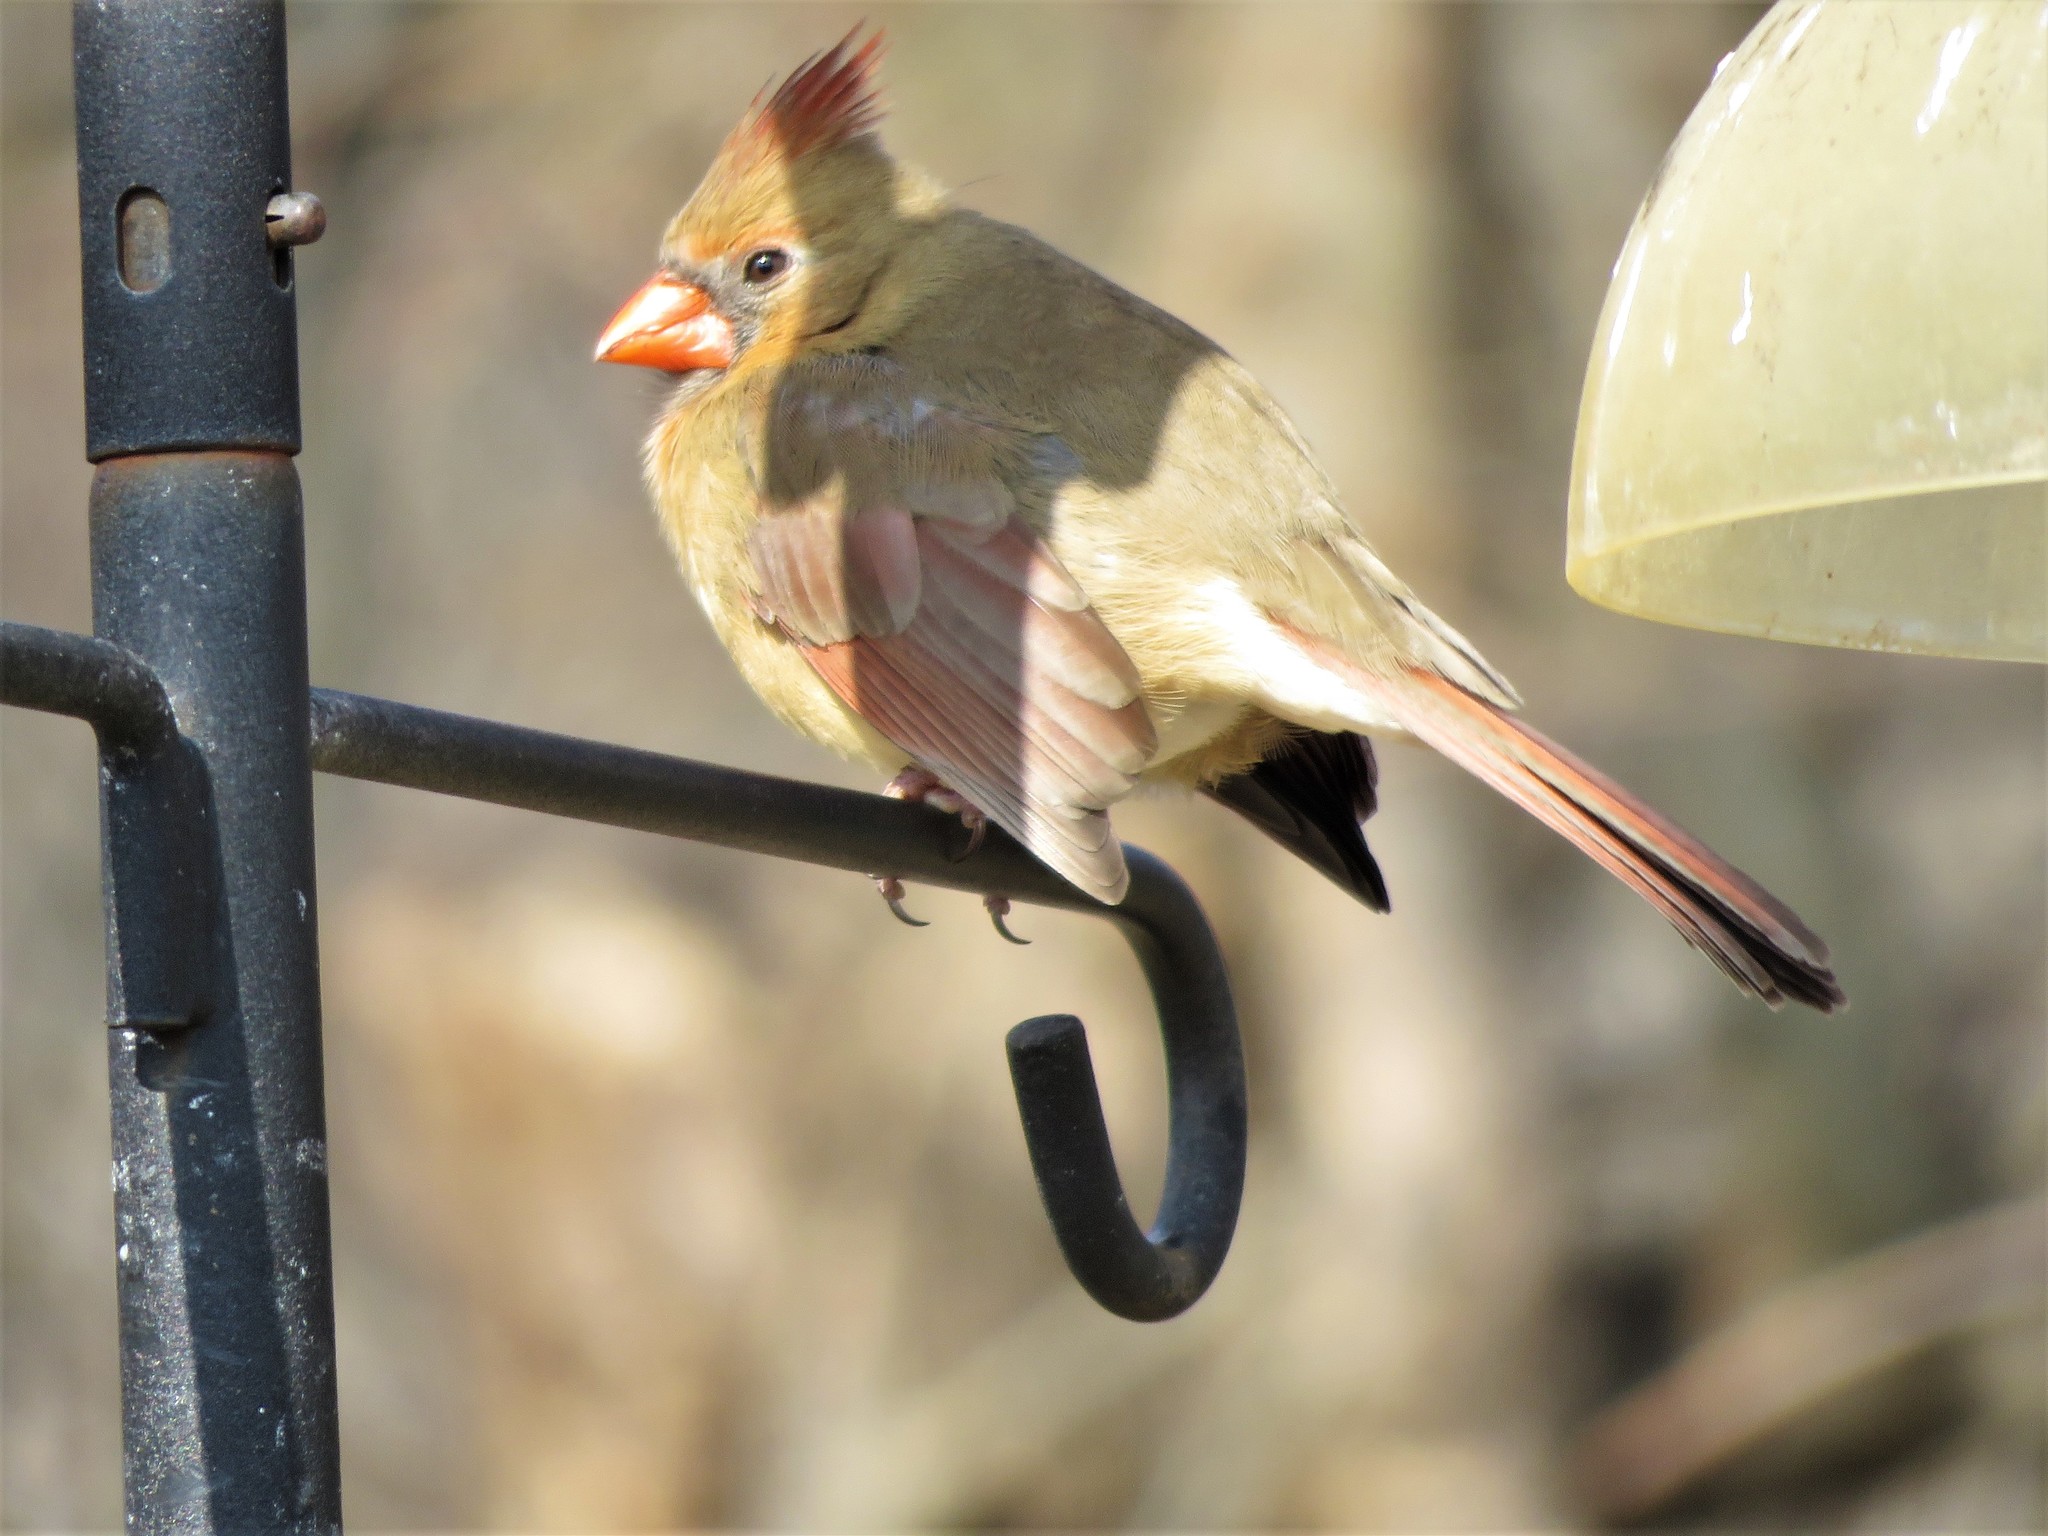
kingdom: Animalia
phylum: Chordata
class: Aves
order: Passeriformes
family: Cardinalidae
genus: Cardinalis
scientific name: Cardinalis cardinalis
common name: Northern cardinal
